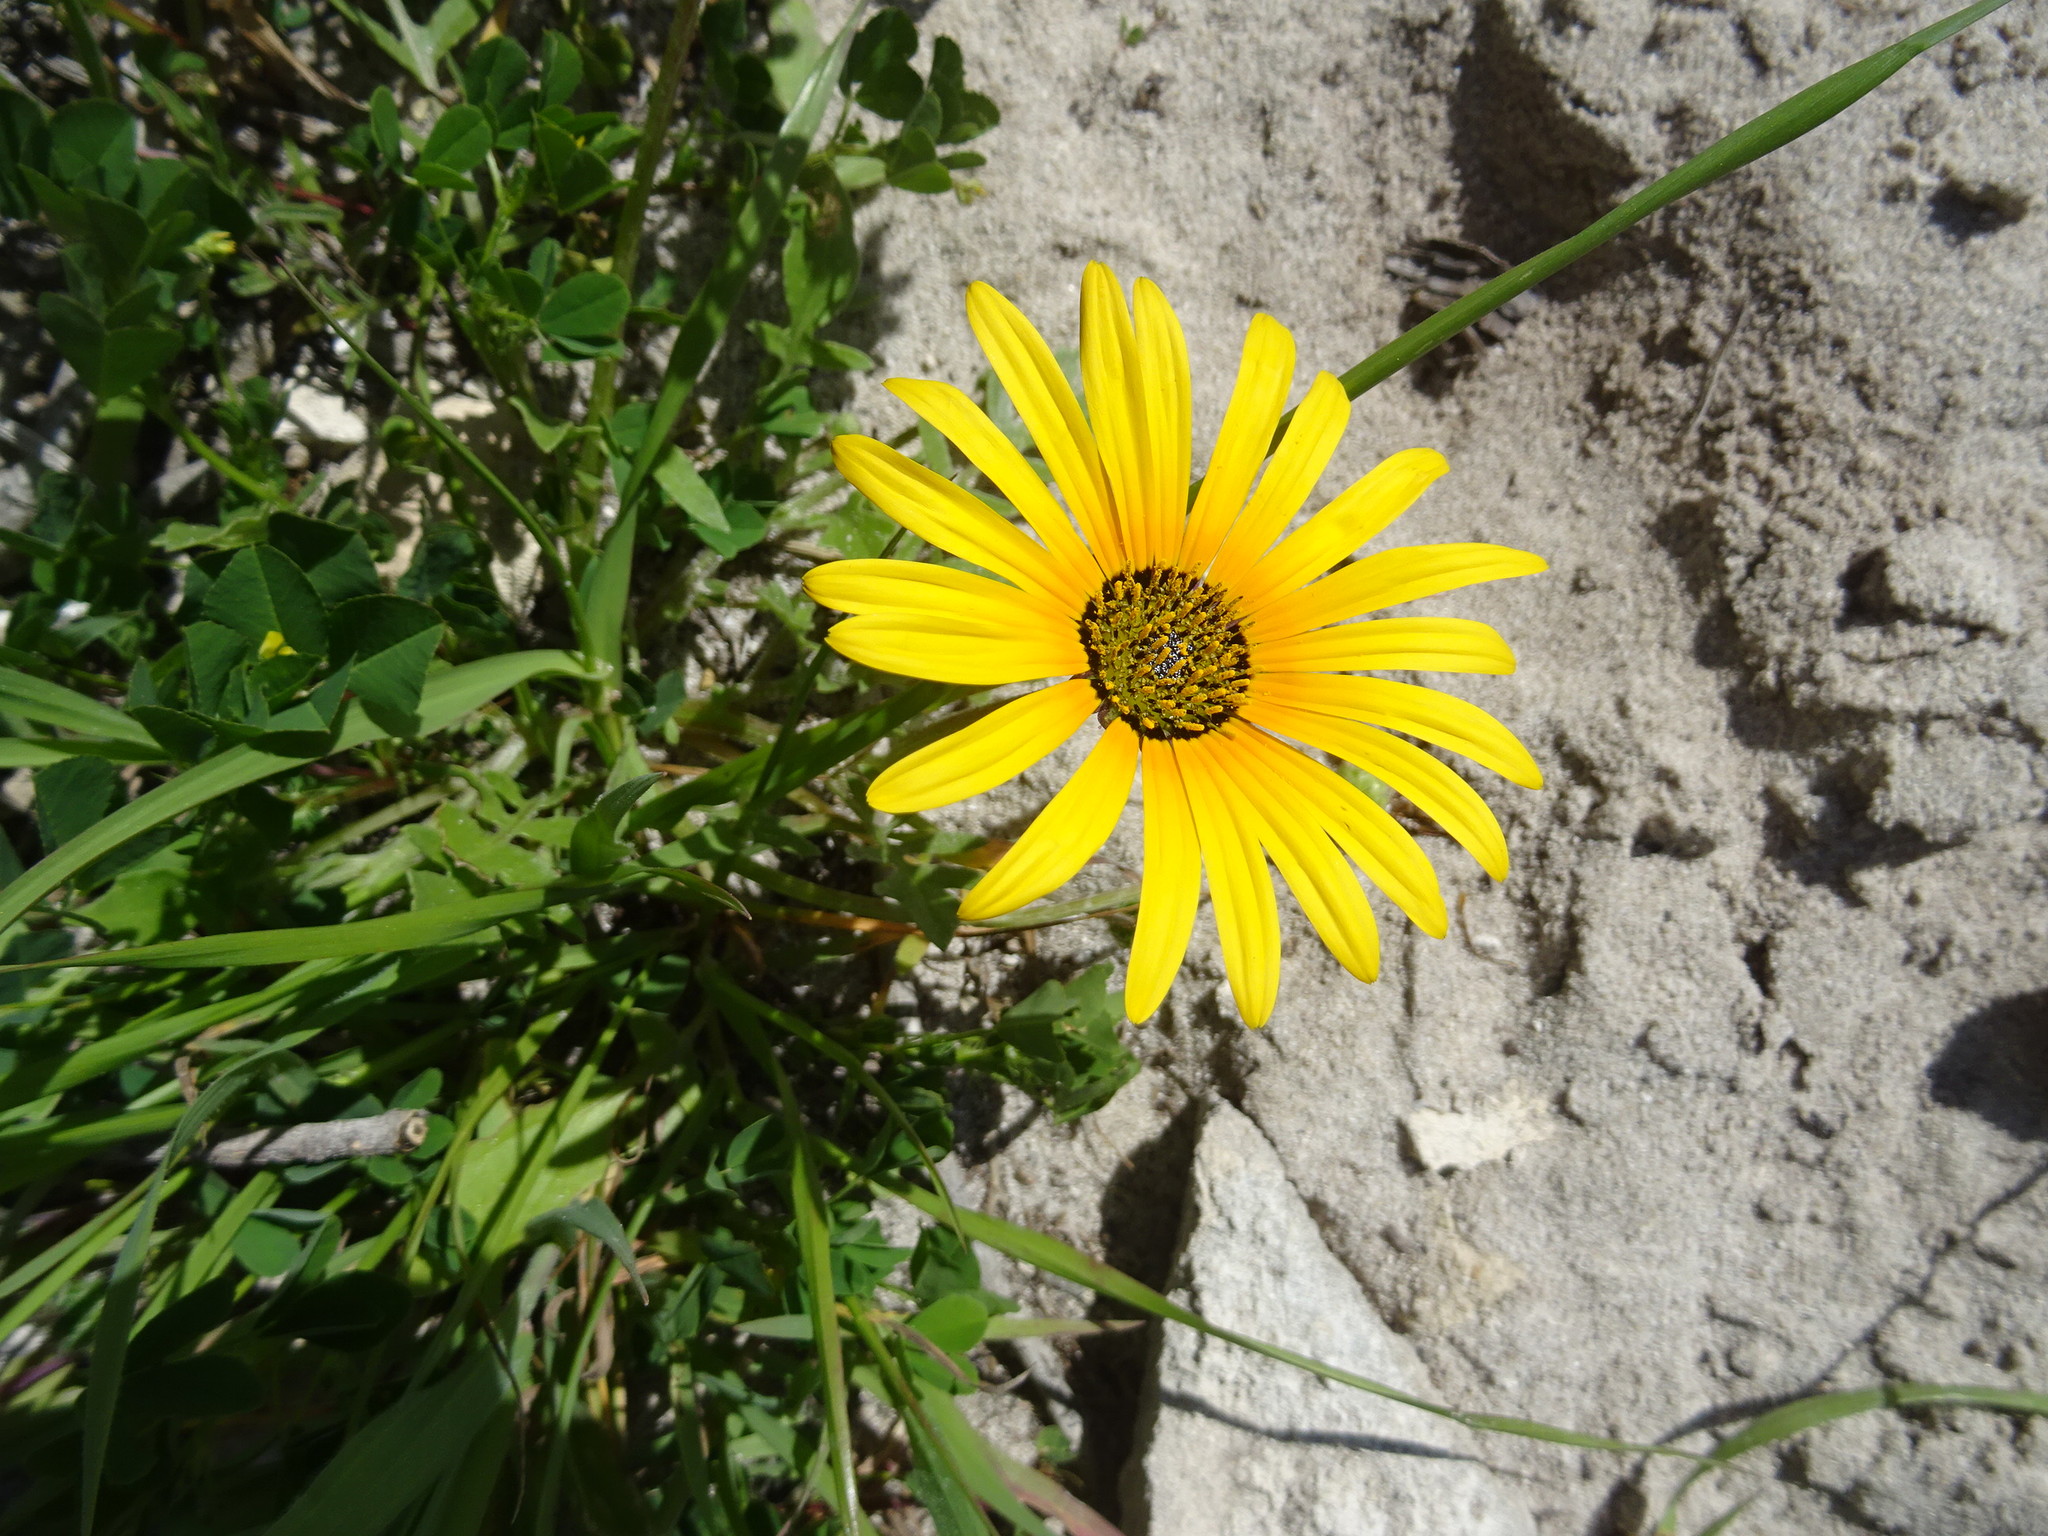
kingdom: Plantae
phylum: Tracheophyta
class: Magnoliopsida
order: Asterales
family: Asteraceae
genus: Arctotheca
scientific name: Arctotheca calendula
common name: Capeweed
